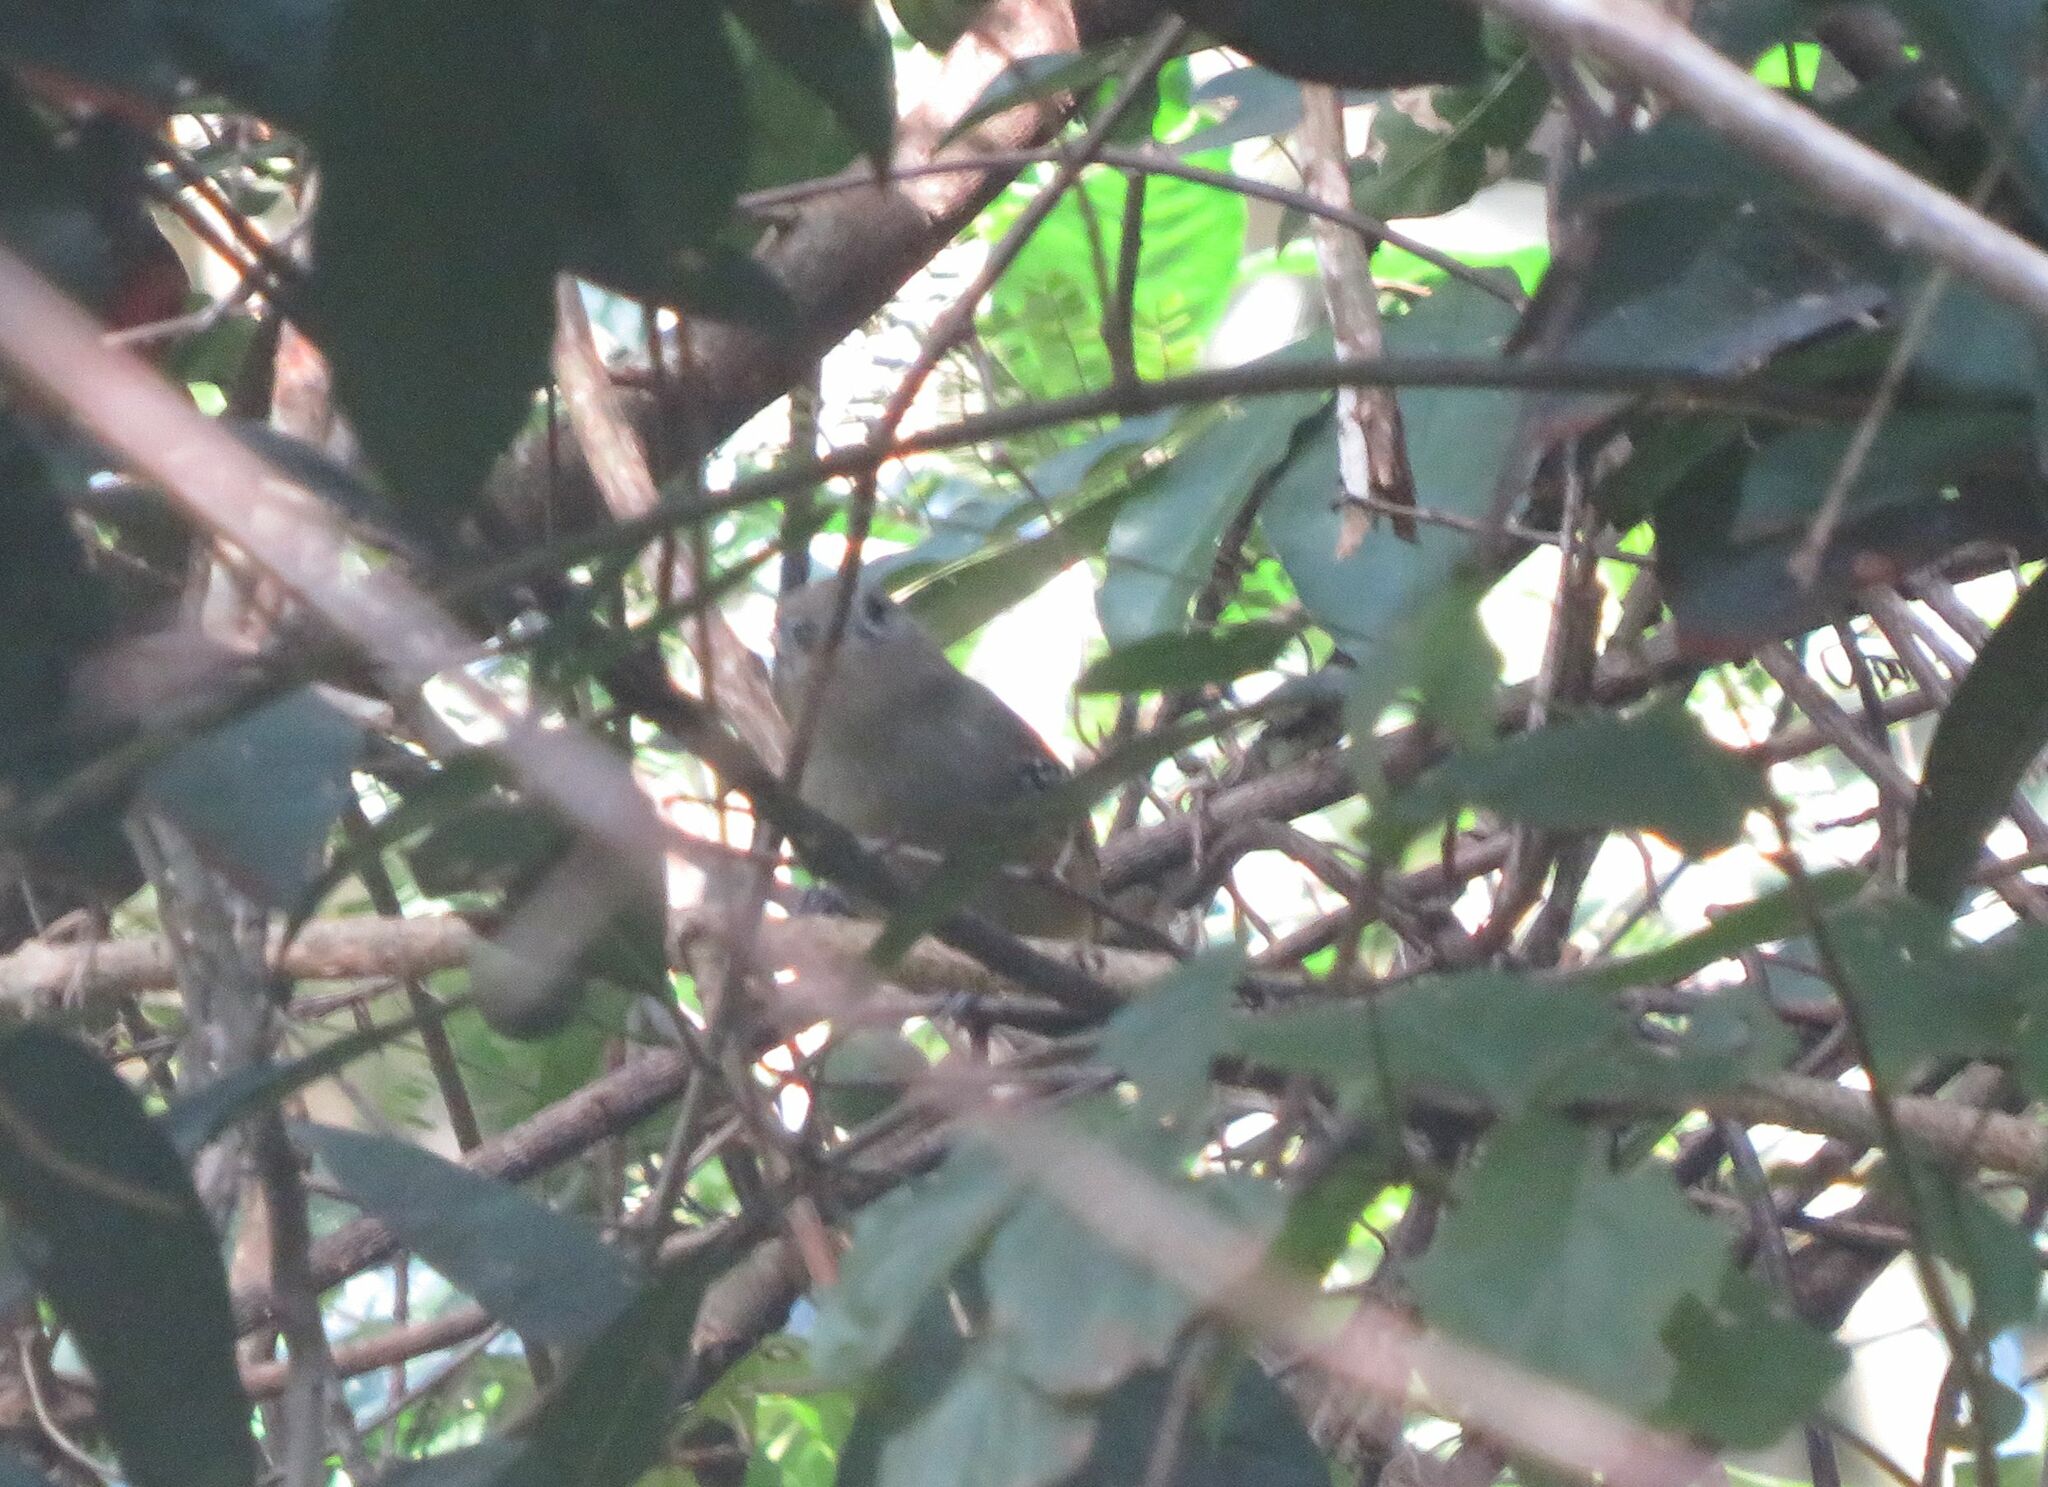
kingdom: Animalia
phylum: Chordata
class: Aves
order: Passeriformes
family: Thamnophilidae
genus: Thamnophilus
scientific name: Thamnophilus caerulescens
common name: Variable antshrike
